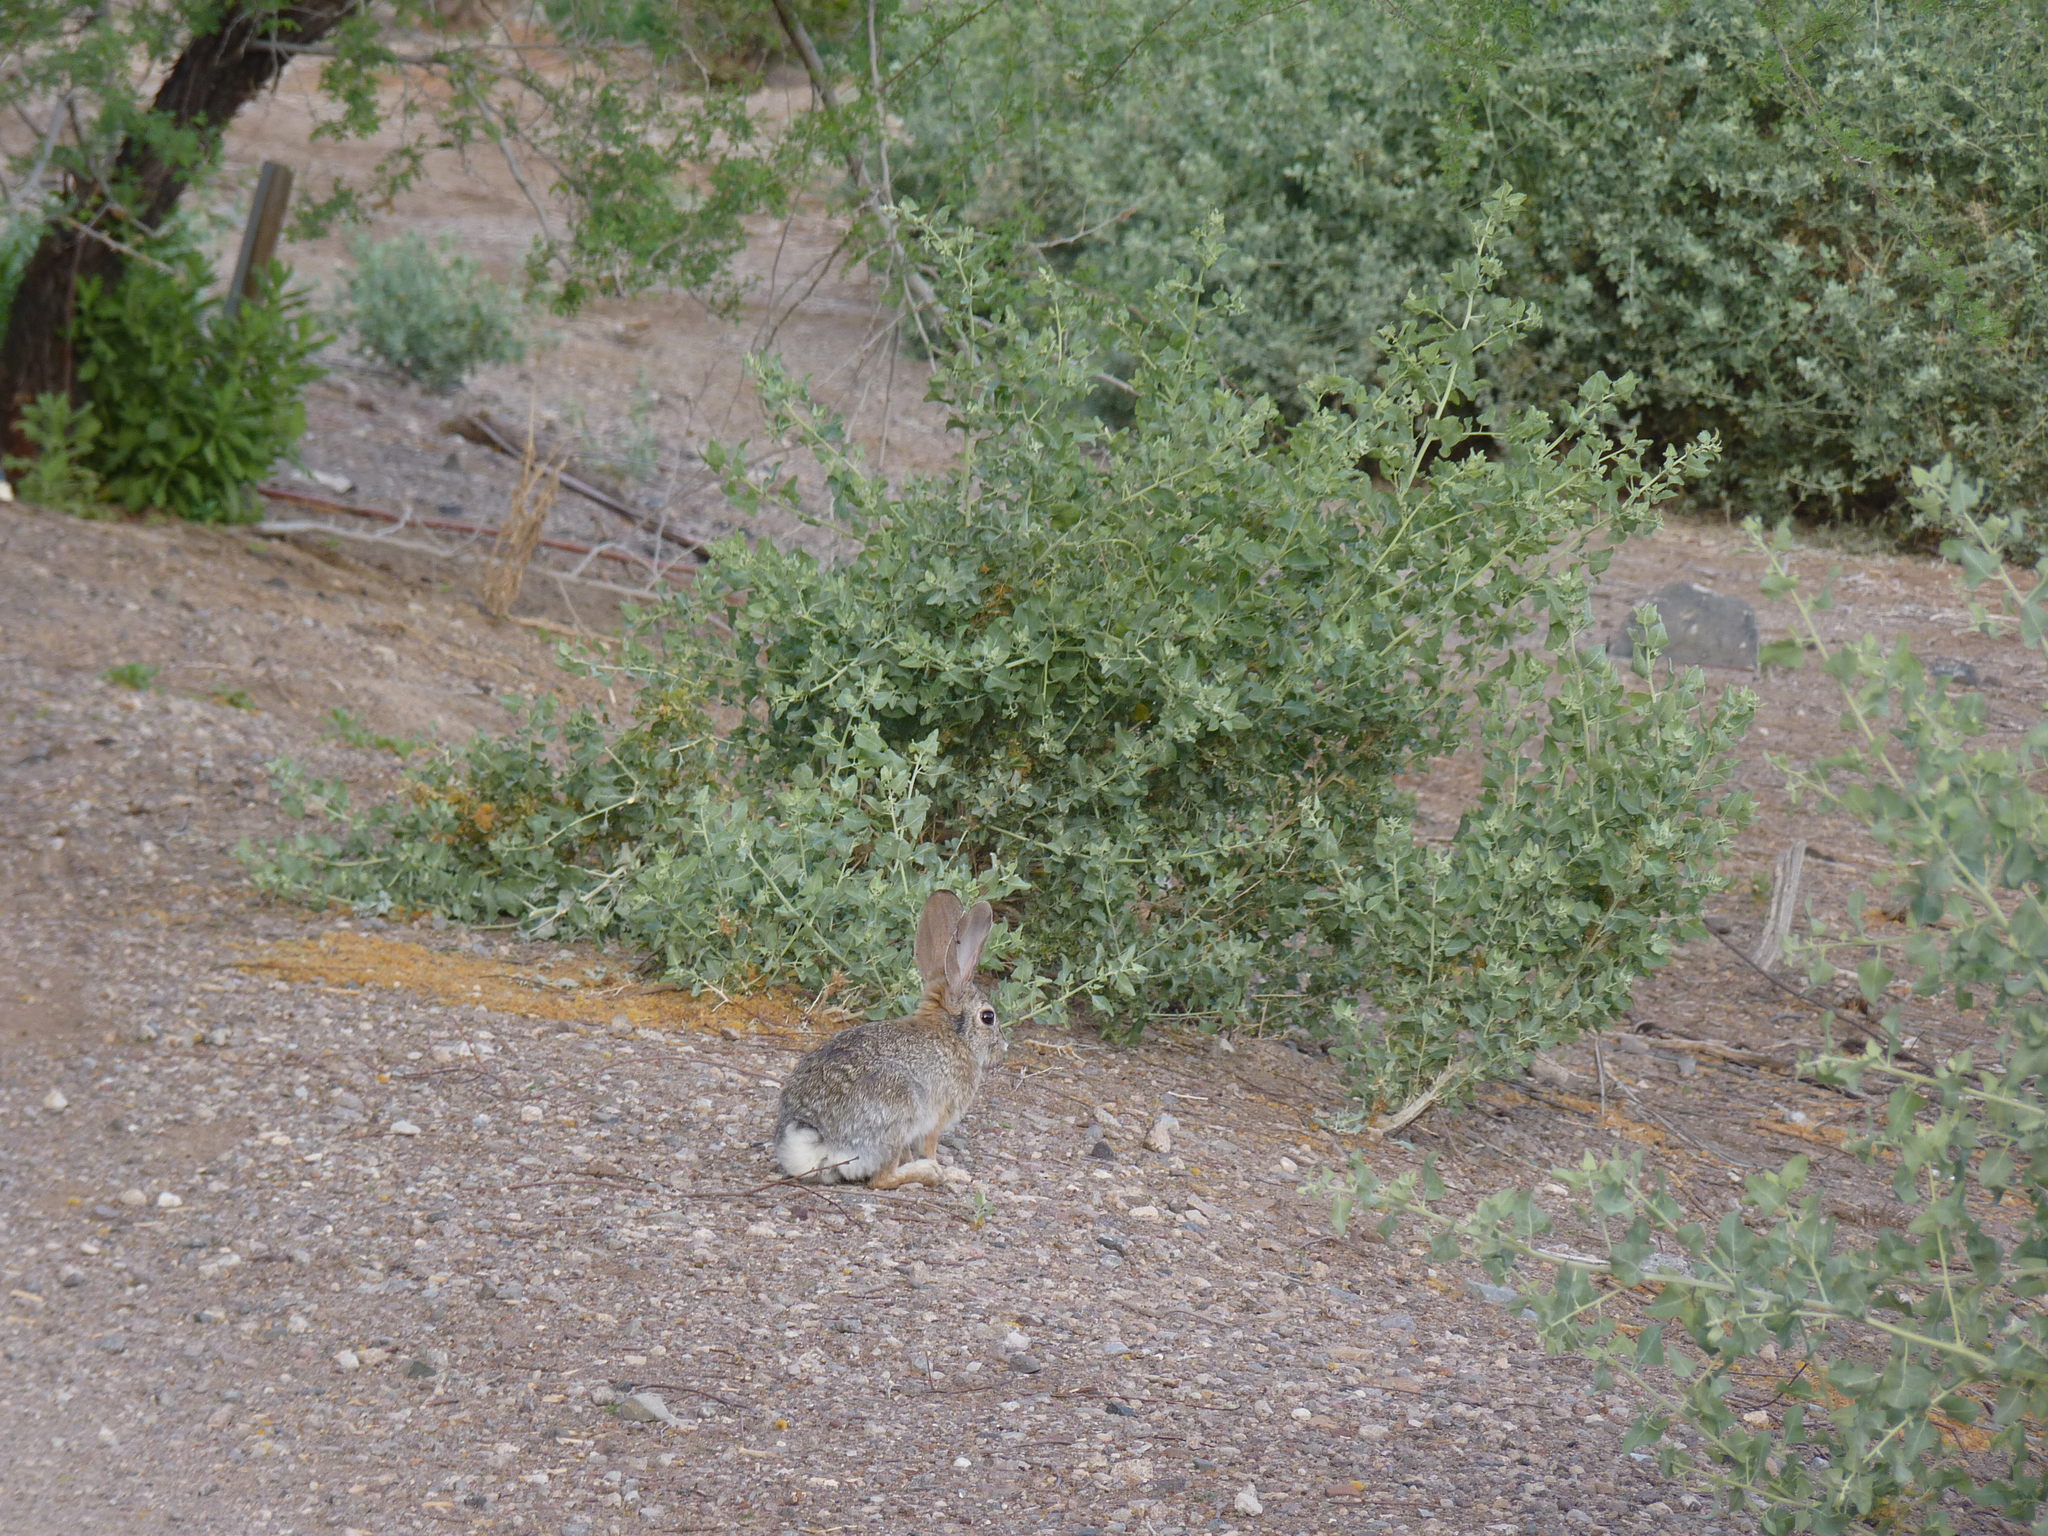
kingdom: Animalia
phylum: Chordata
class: Mammalia
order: Lagomorpha
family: Leporidae
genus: Sylvilagus
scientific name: Sylvilagus audubonii
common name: Desert cottontail
